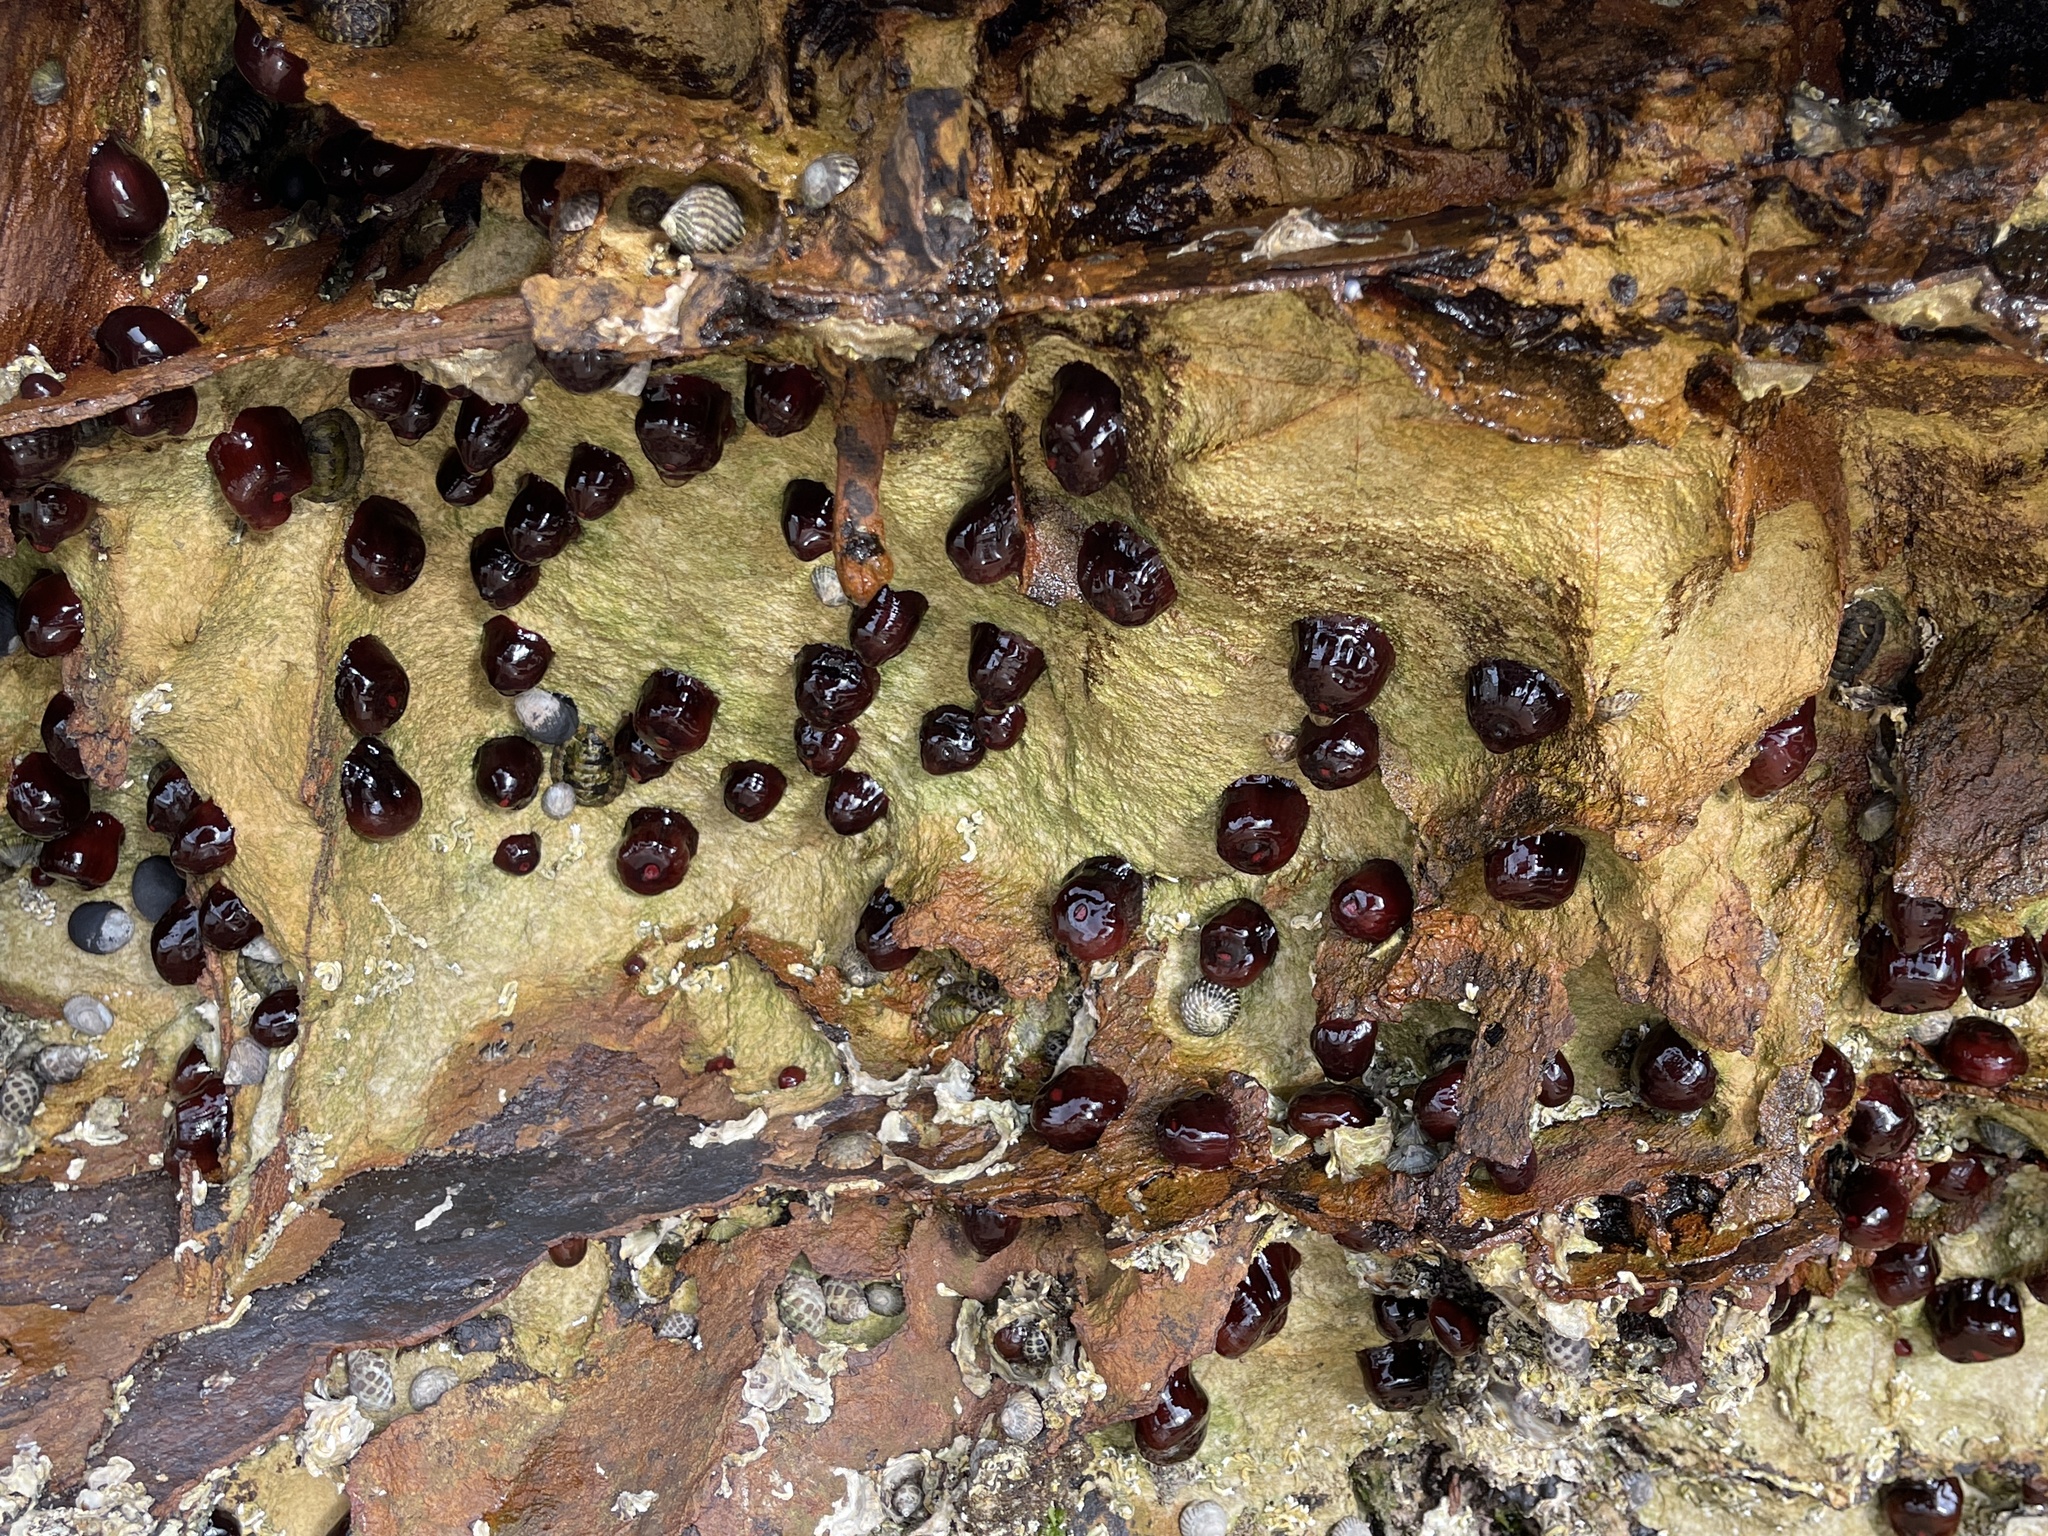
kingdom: Animalia
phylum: Cnidaria
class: Anthozoa
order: Actiniaria
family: Actiniidae
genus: Actinia
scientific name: Actinia tenebrosa
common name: Waratah anemone
